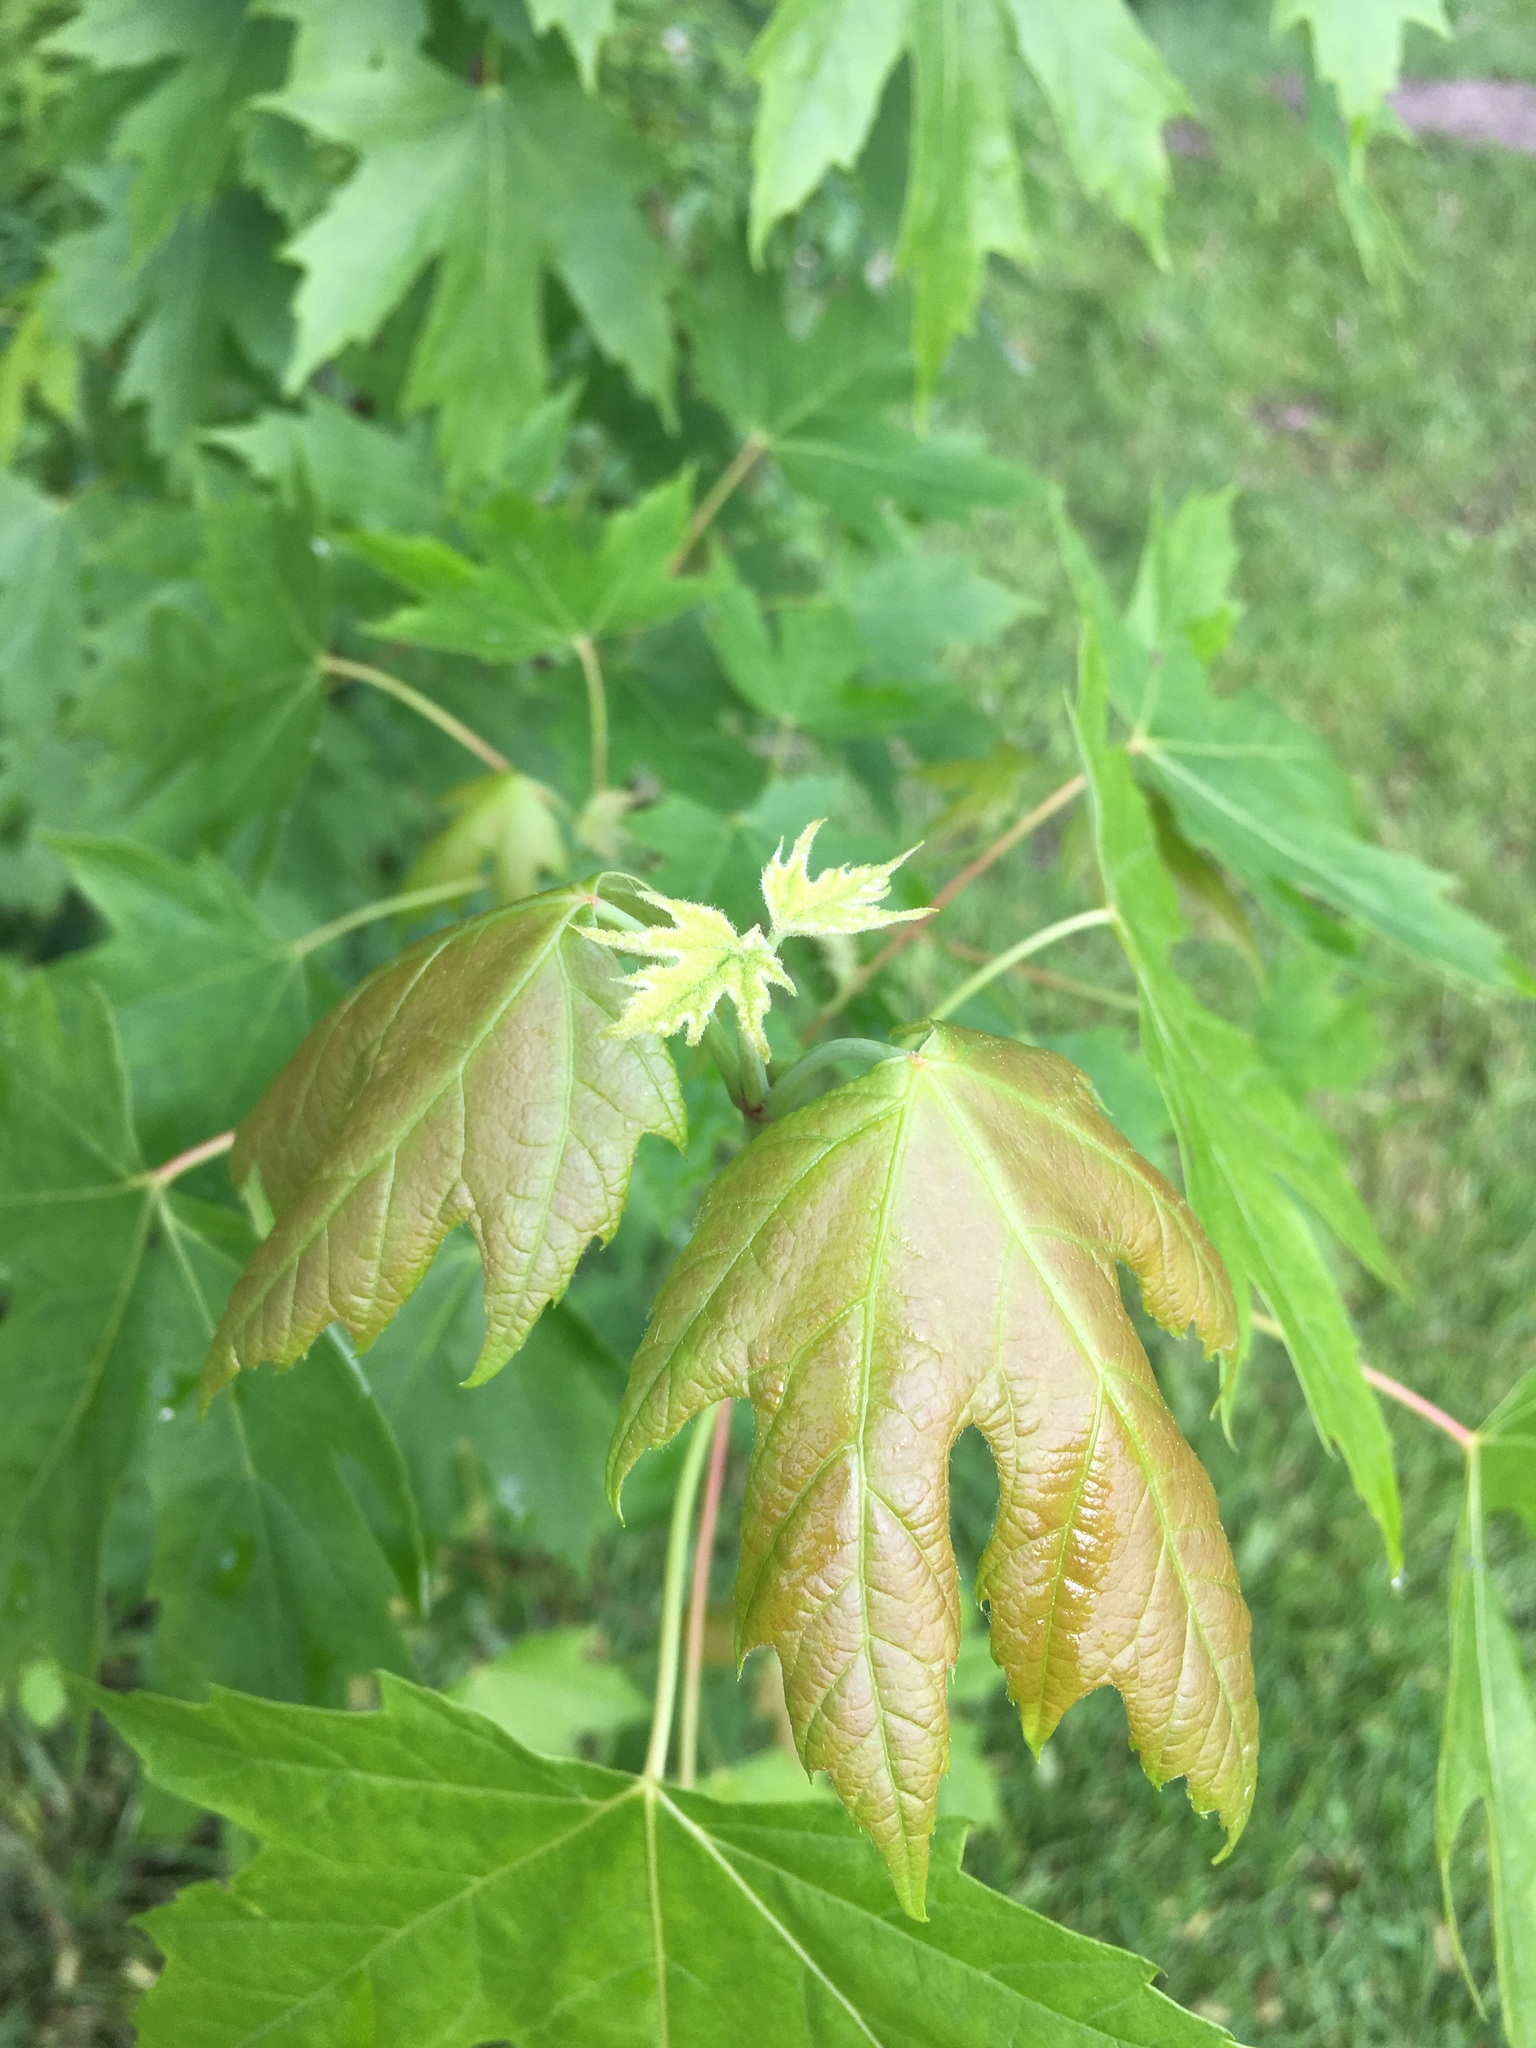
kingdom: Plantae
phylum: Tracheophyta
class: Magnoliopsida
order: Sapindales
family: Sapindaceae
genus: Acer
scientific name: Acer saccharinum
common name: Silver maple
